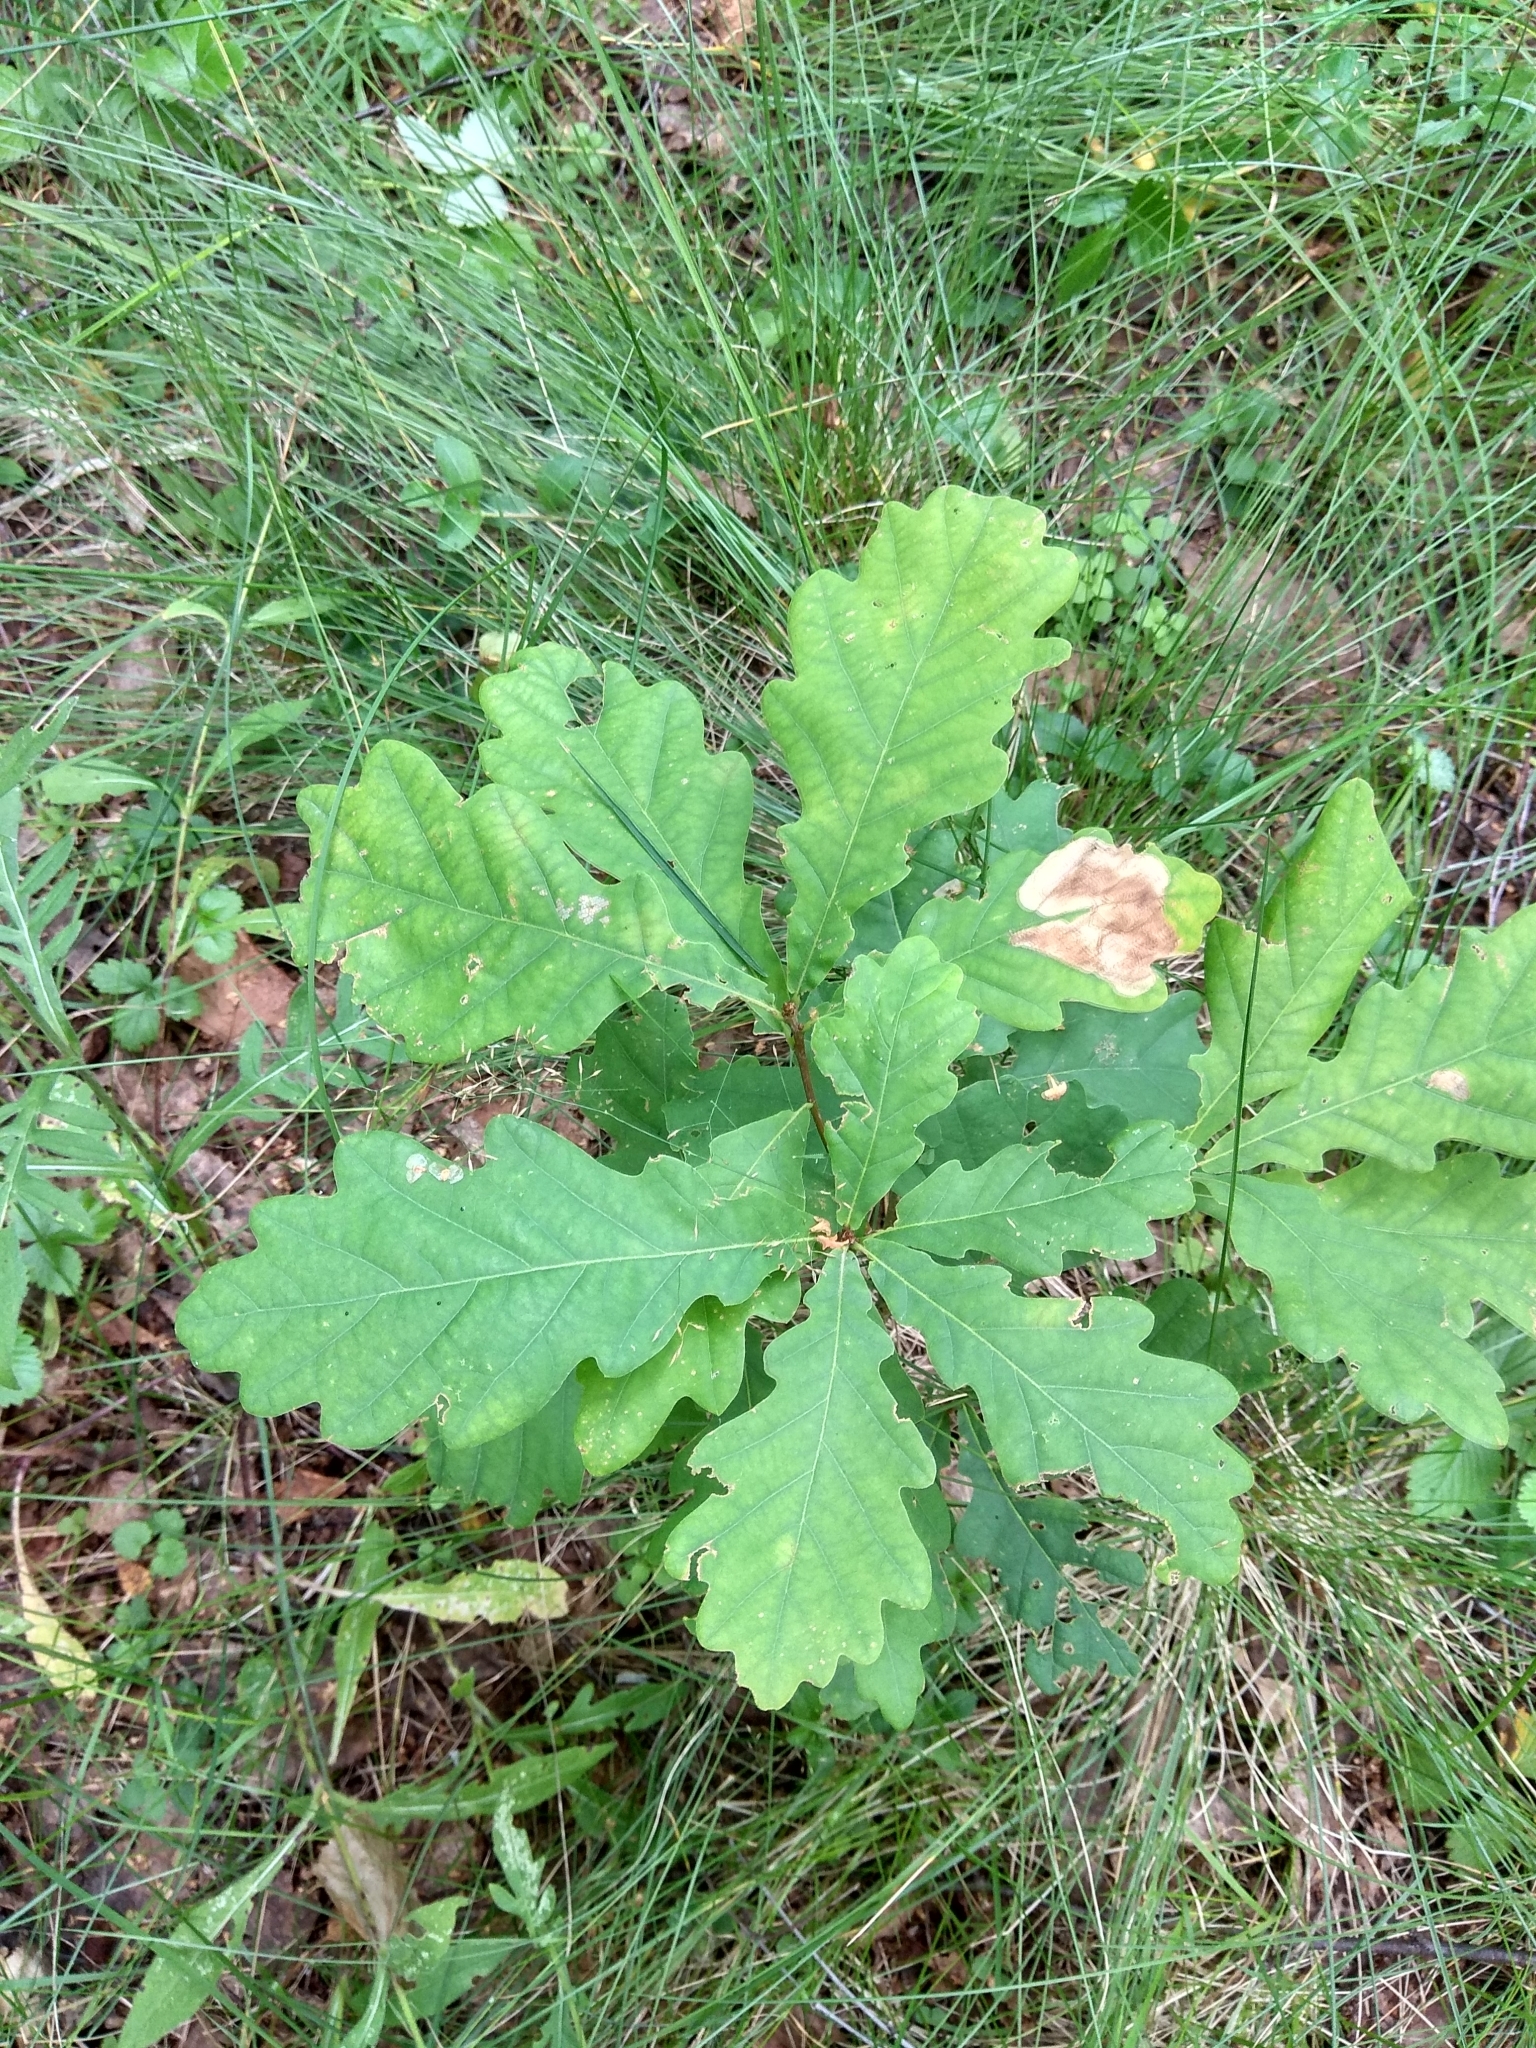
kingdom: Plantae
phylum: Tracheophyta
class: Magnoliopsida
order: Fagales
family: Fagaceae
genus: Quercus
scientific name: Quercus robur
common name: Pedunculate oak
